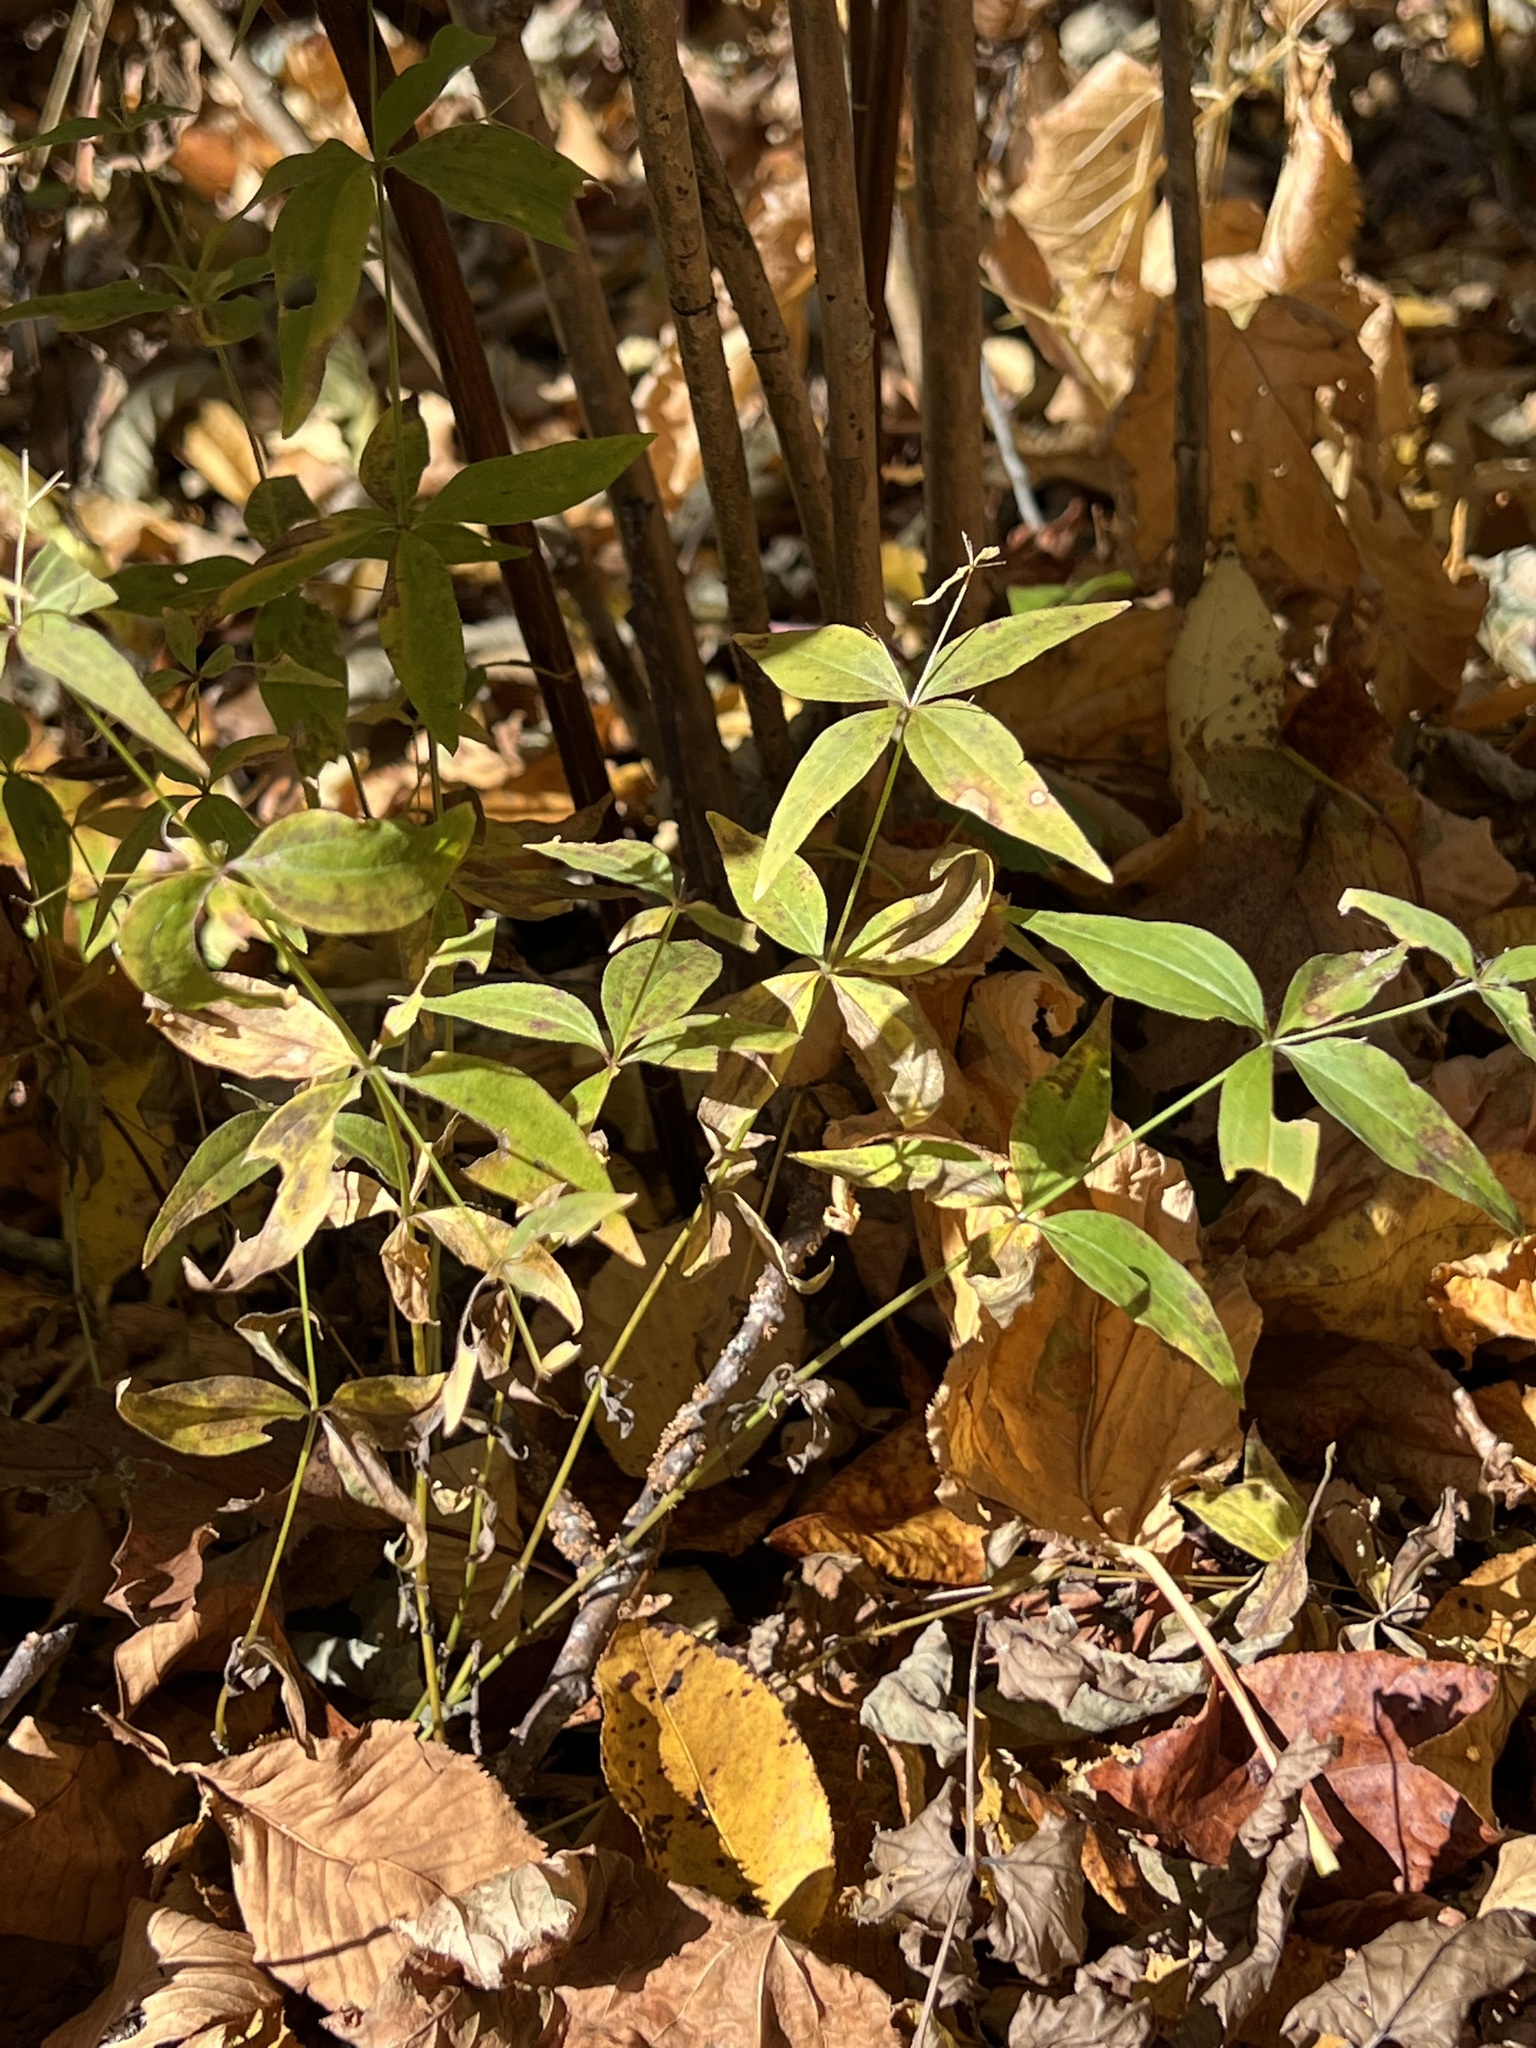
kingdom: Plantae
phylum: Tracheophyta
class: Magnoliopsida
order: Gentianales
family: Rubiaceae
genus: Galium
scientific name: Galium circaezans
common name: Forest bedstraw
